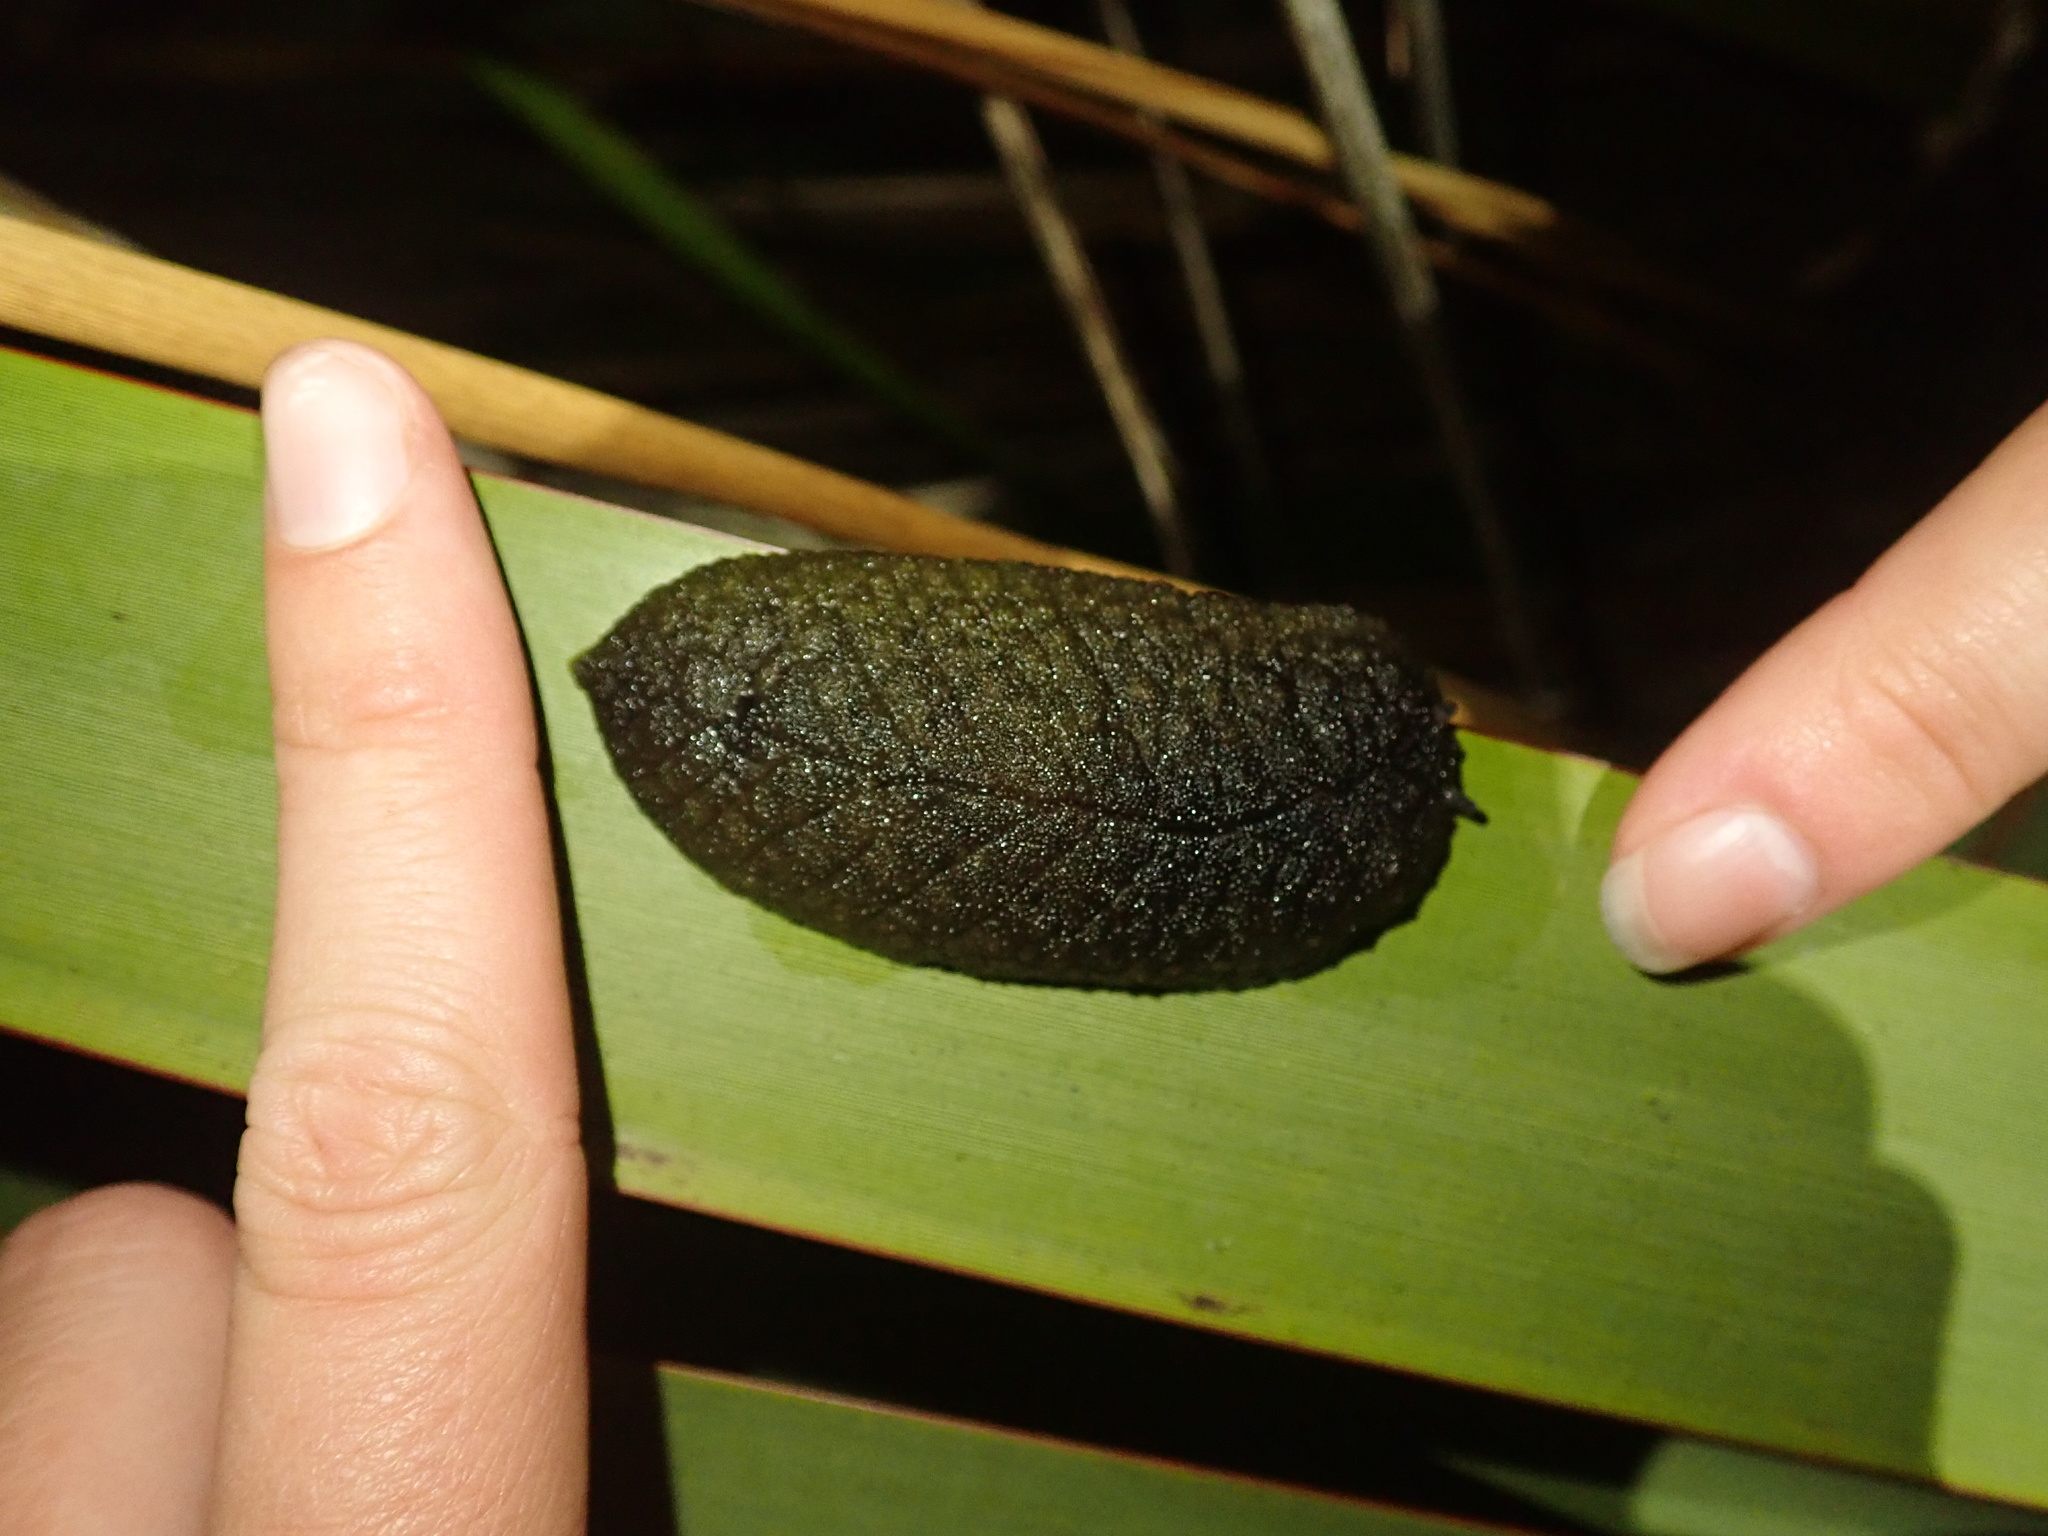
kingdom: Animalia
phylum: Mollusca
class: Gastropoda
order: Stylommatophora
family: Athoracophoridae
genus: Athoracophorus
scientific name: Athoracophorus papillatus
